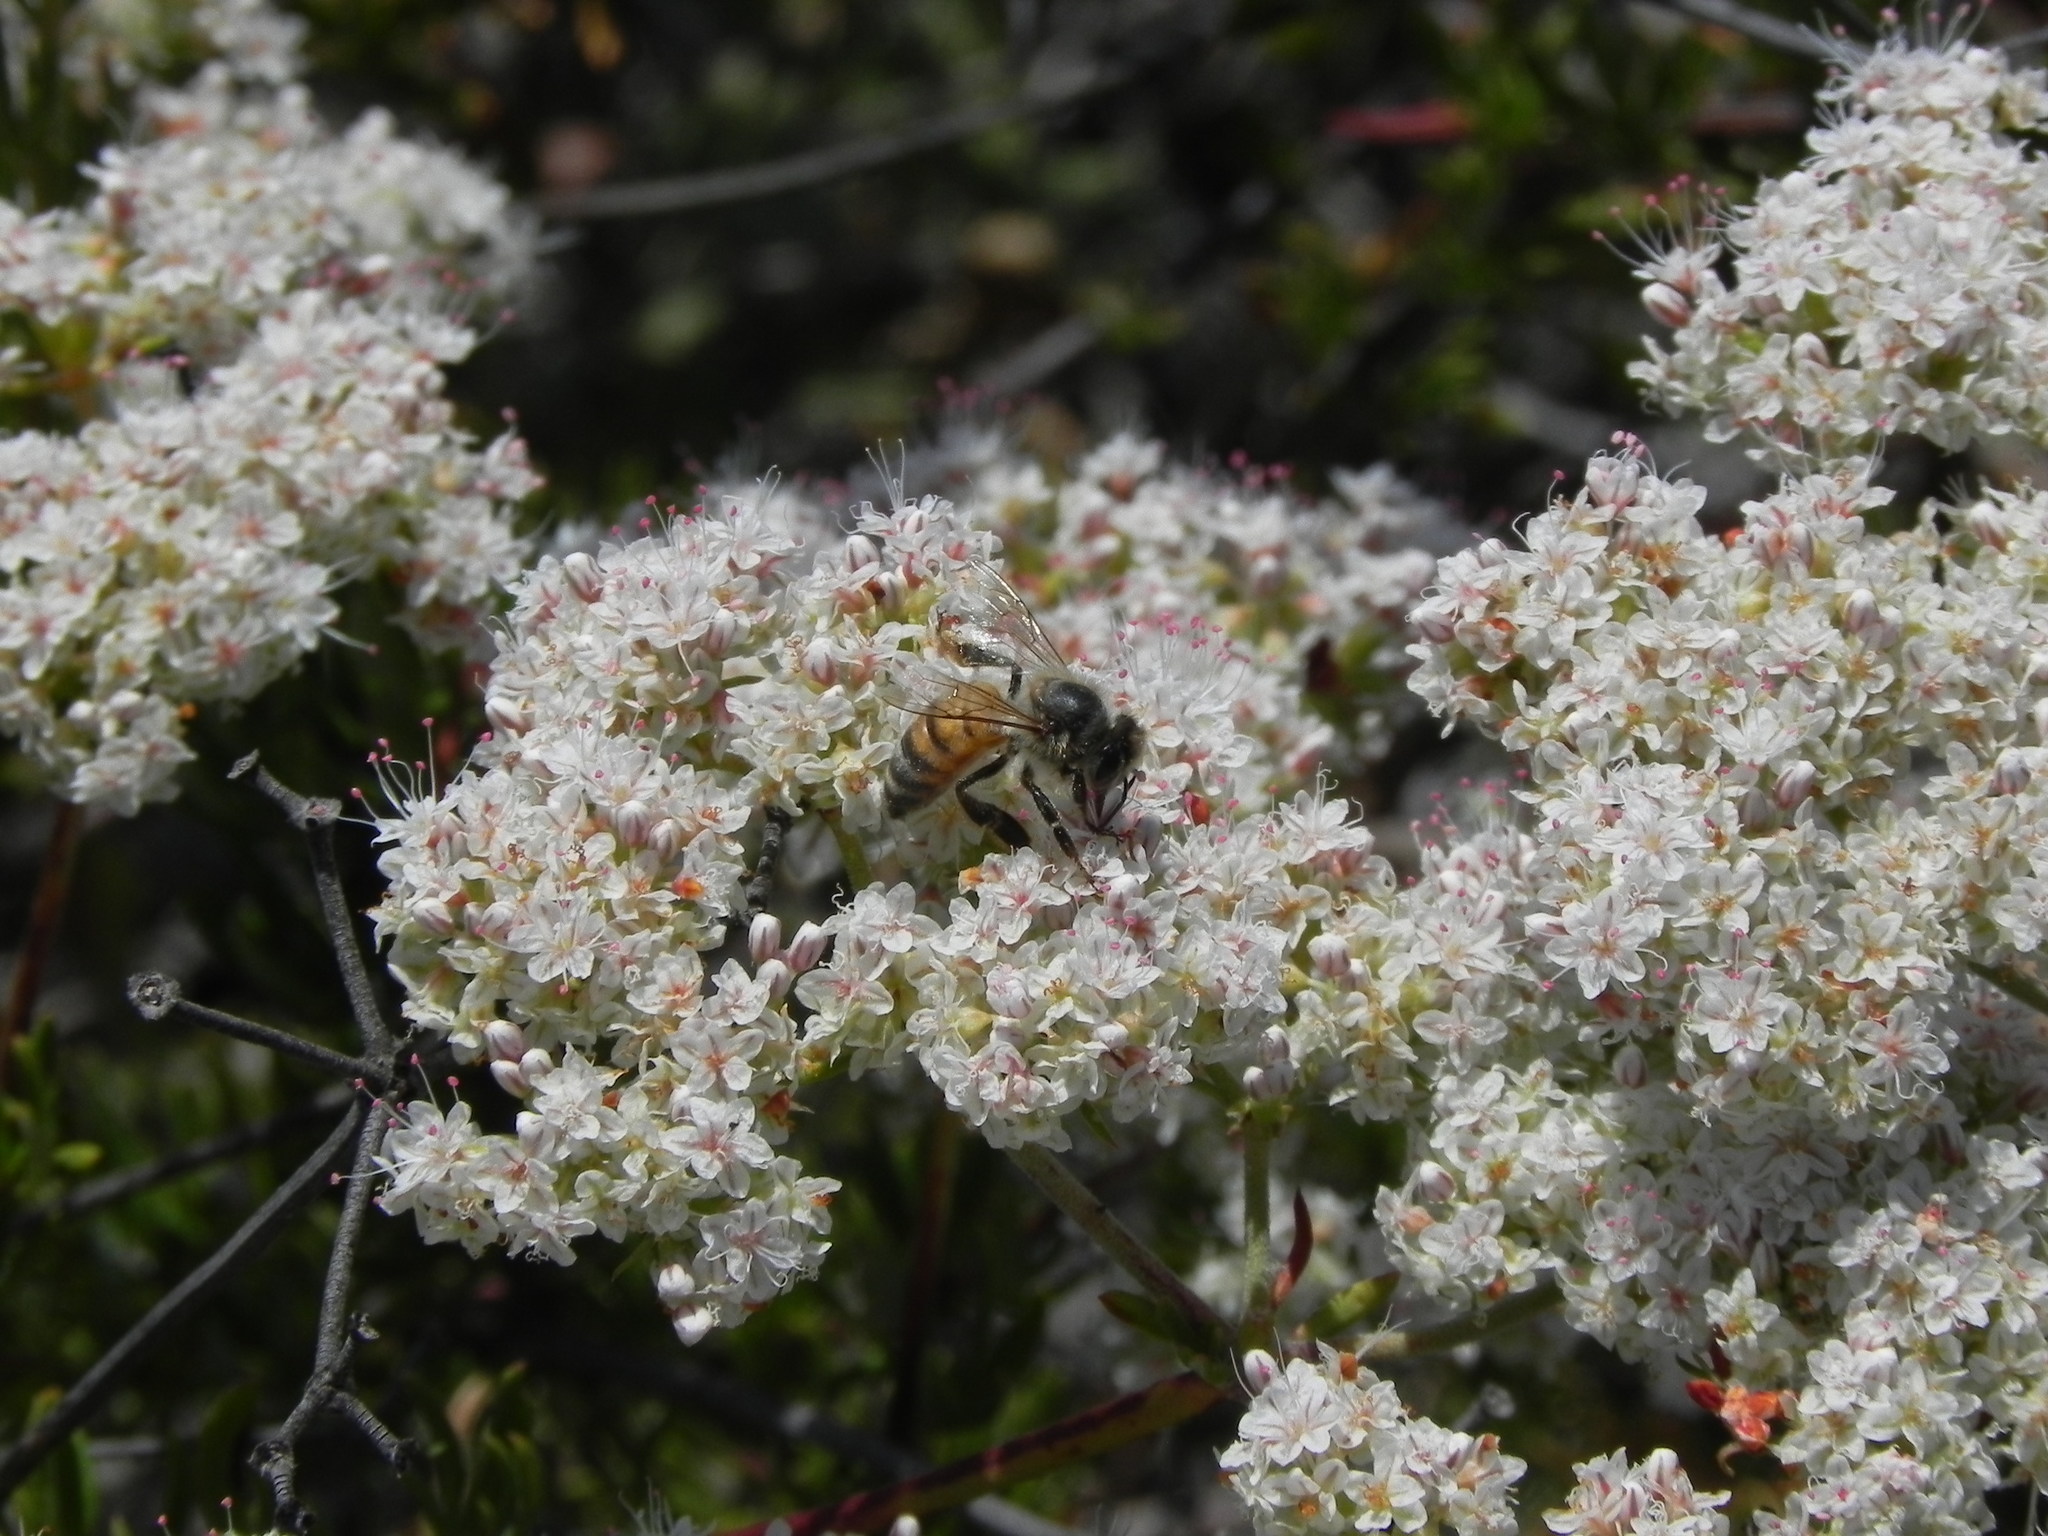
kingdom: Animalia
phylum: Arthropoda
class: Insecta
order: Hymenoptera
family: Apidae
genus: Apis
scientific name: Apis mellifera
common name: Honey bee
